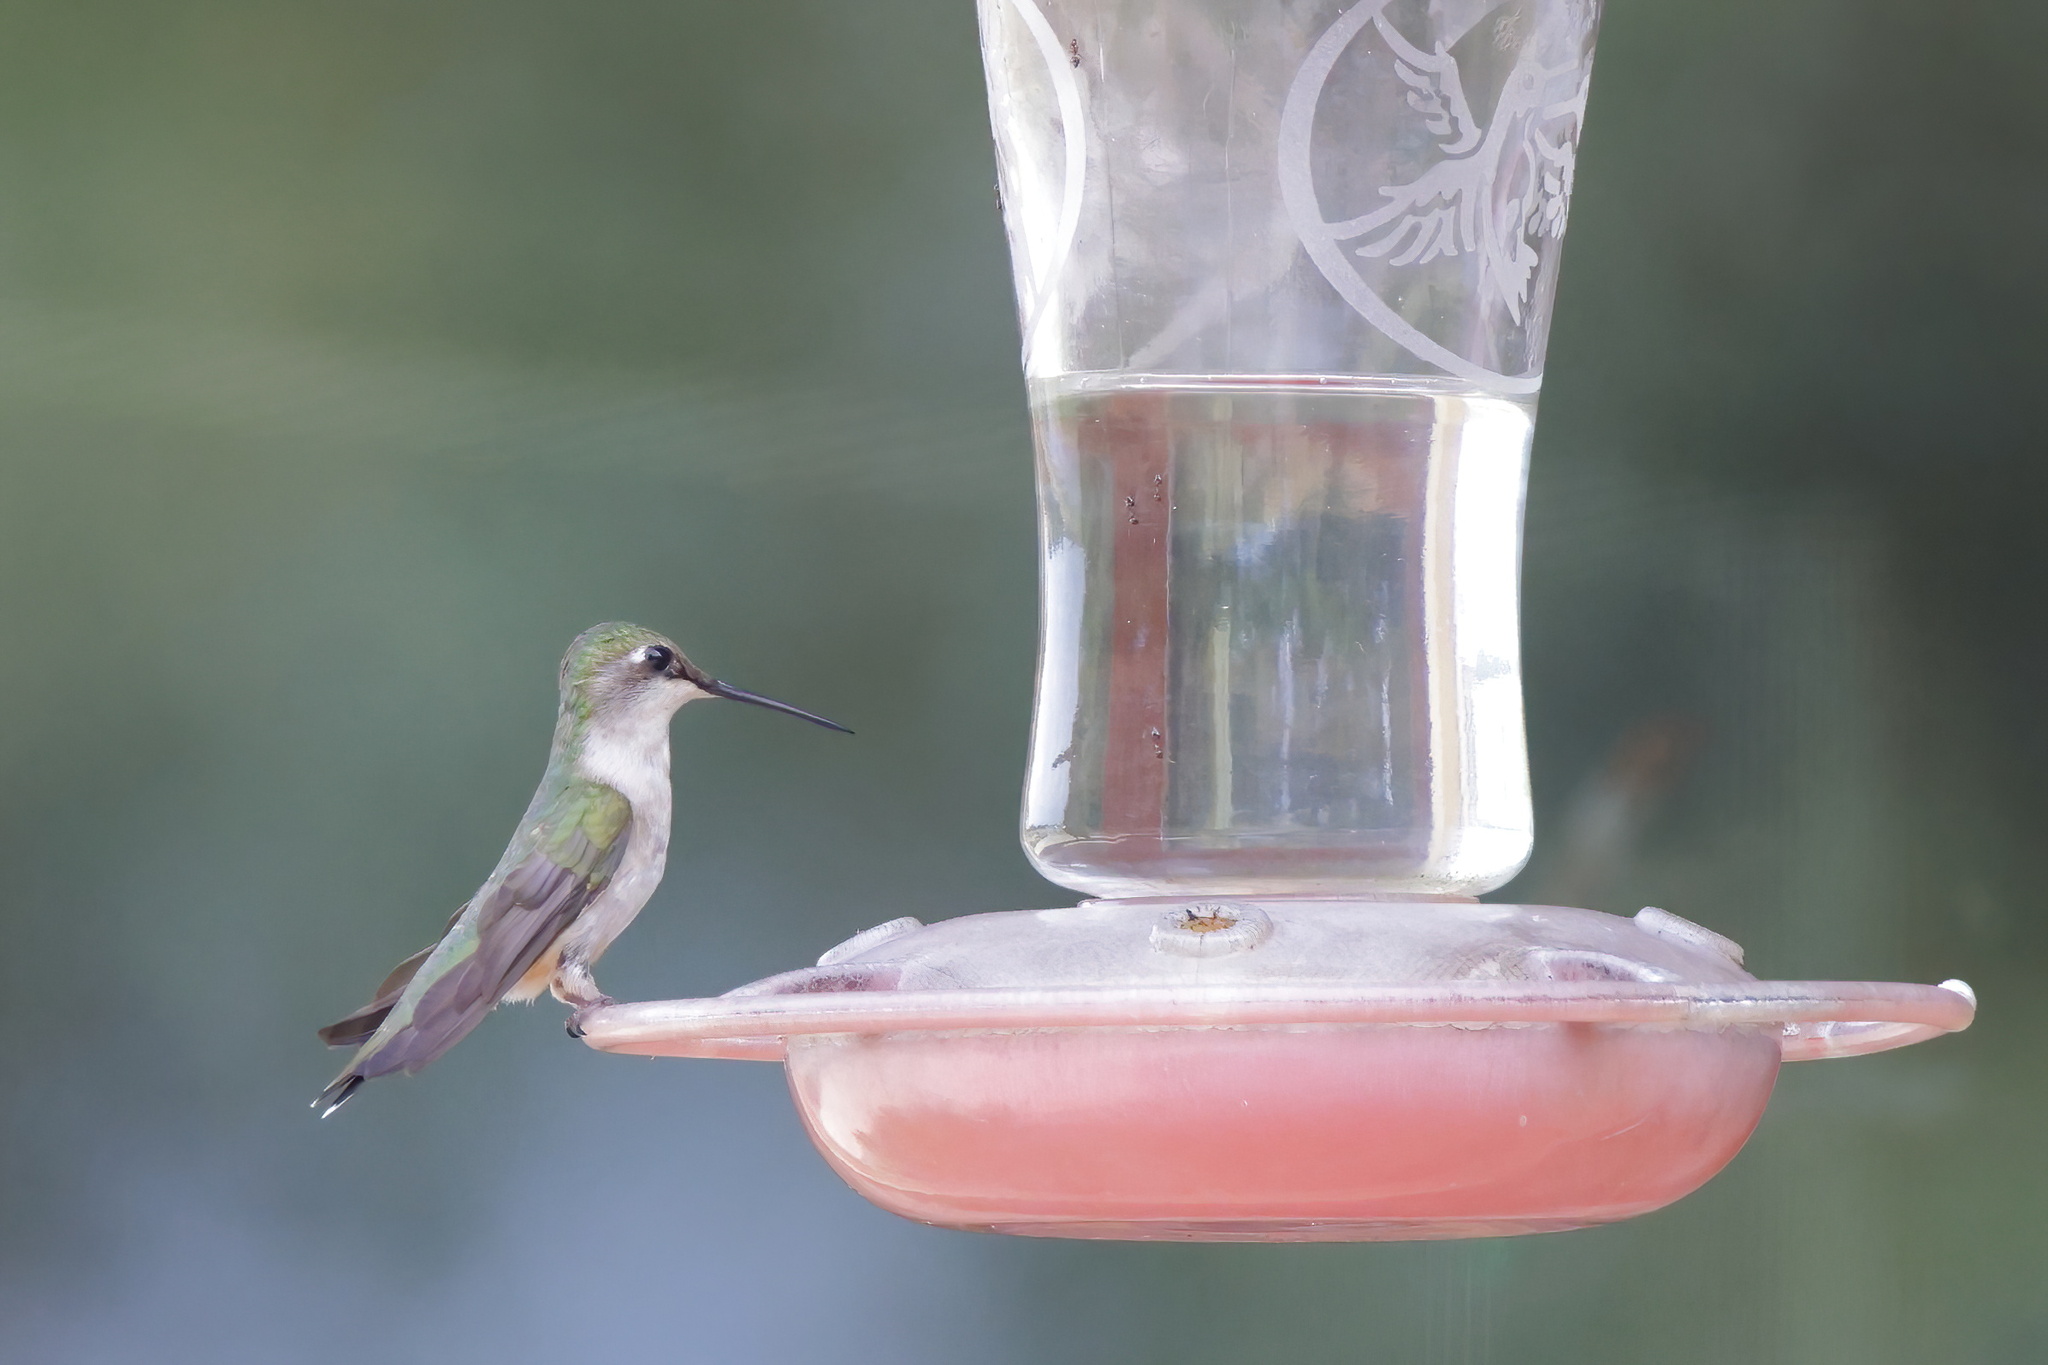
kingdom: Animalia
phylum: Chordata
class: Aves
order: Apodiformes
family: Trochilidae
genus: Archilochus
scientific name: Archilochus colubris
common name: Ruby-throated hummingbird
